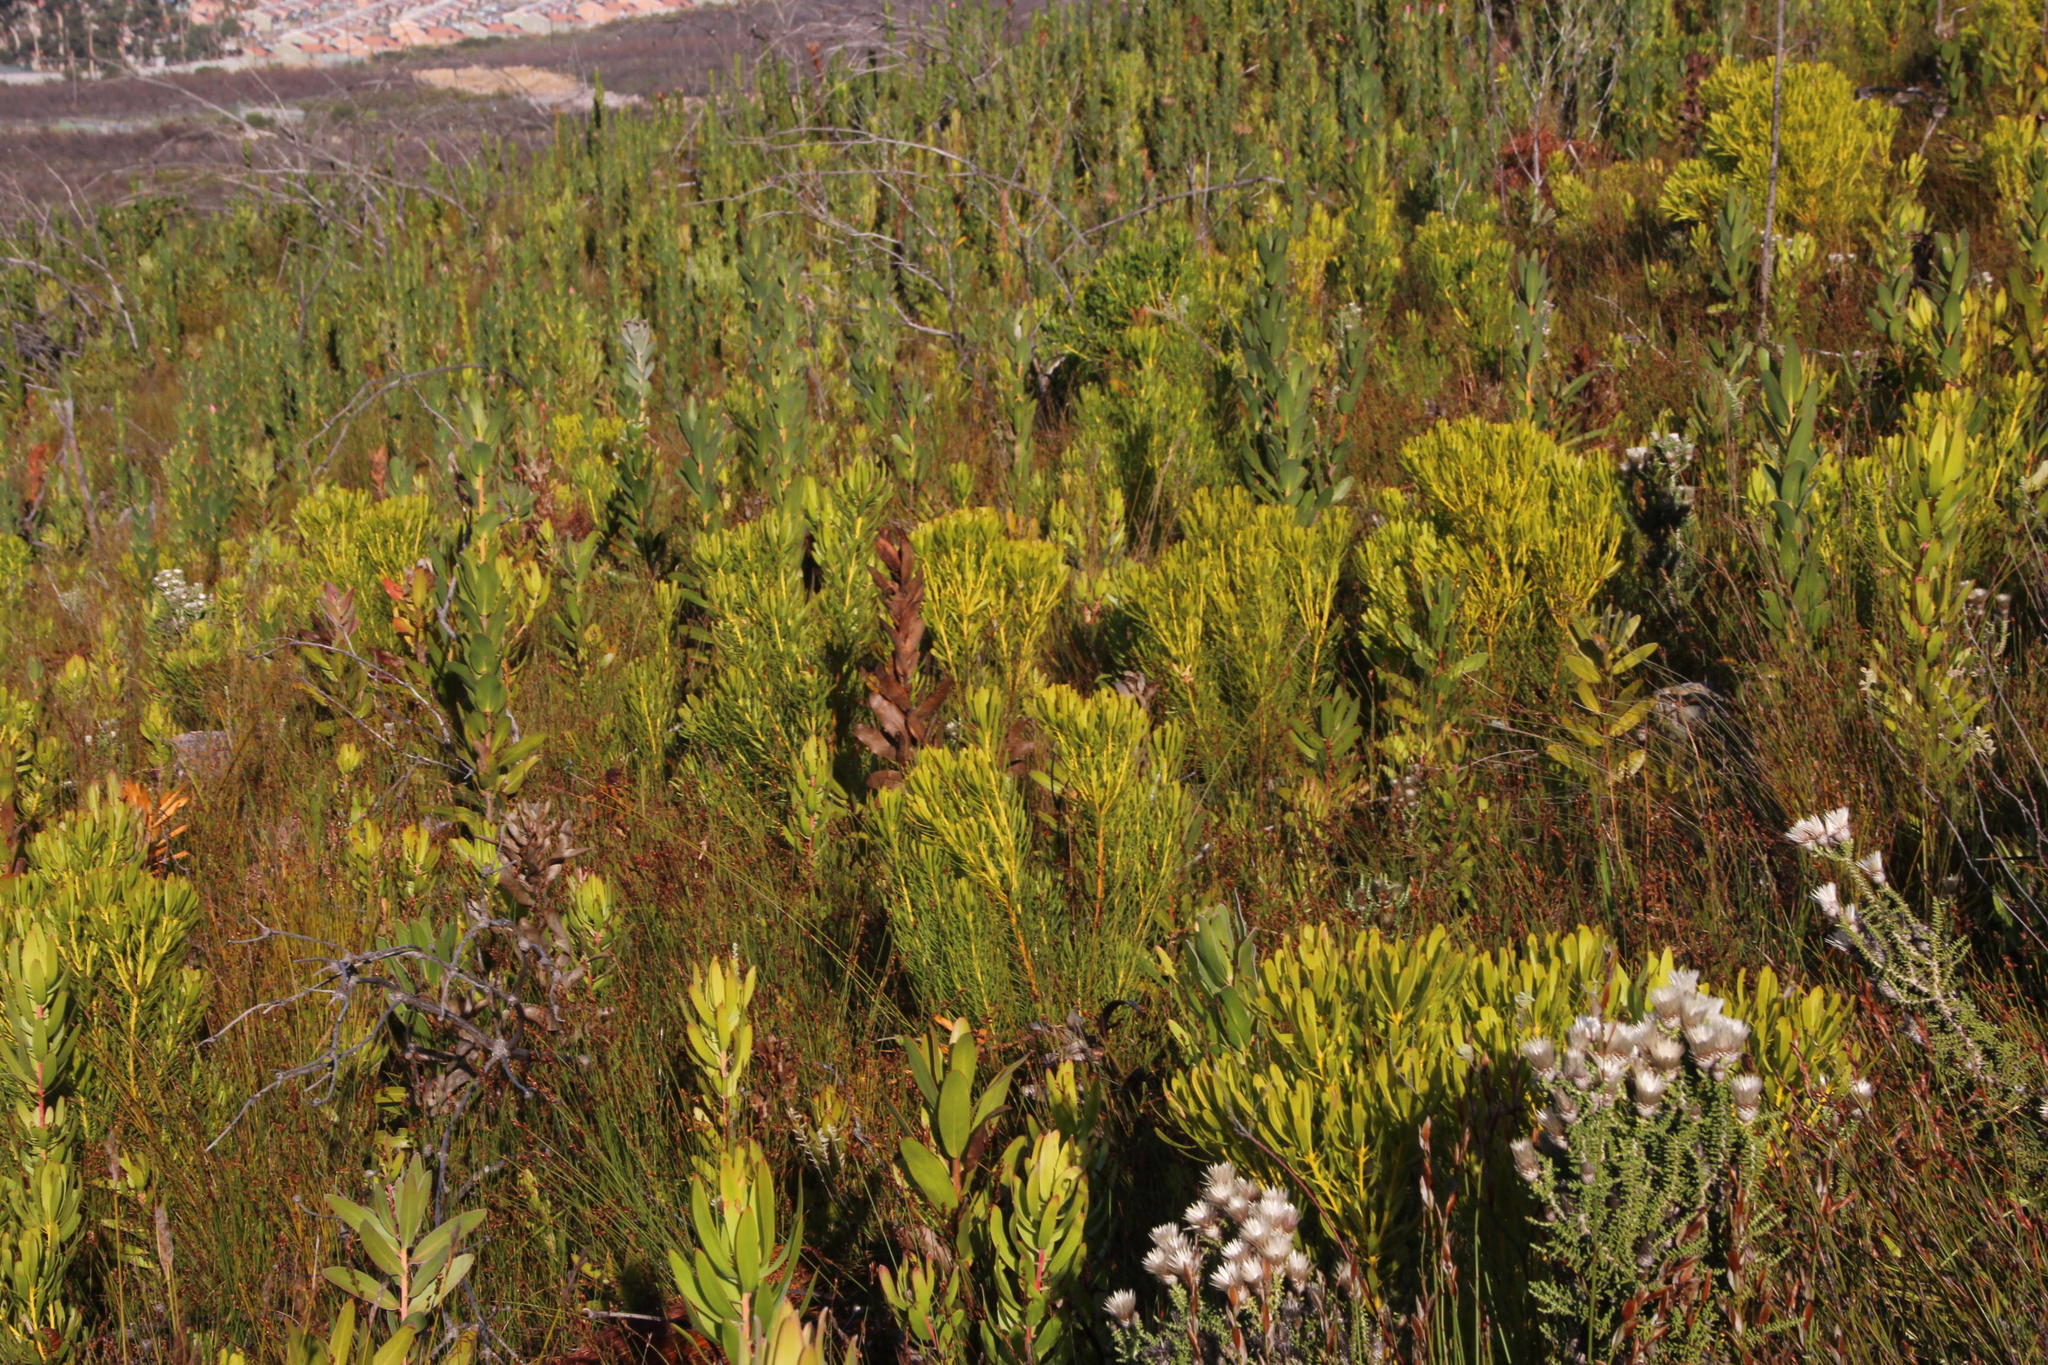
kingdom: Plantae
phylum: Tracheophyta
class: Magnoliopsida
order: Proteales
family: Proteaceae
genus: Leucadendron
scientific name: Leucadendron platyspermum
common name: Plate-seed conebush
